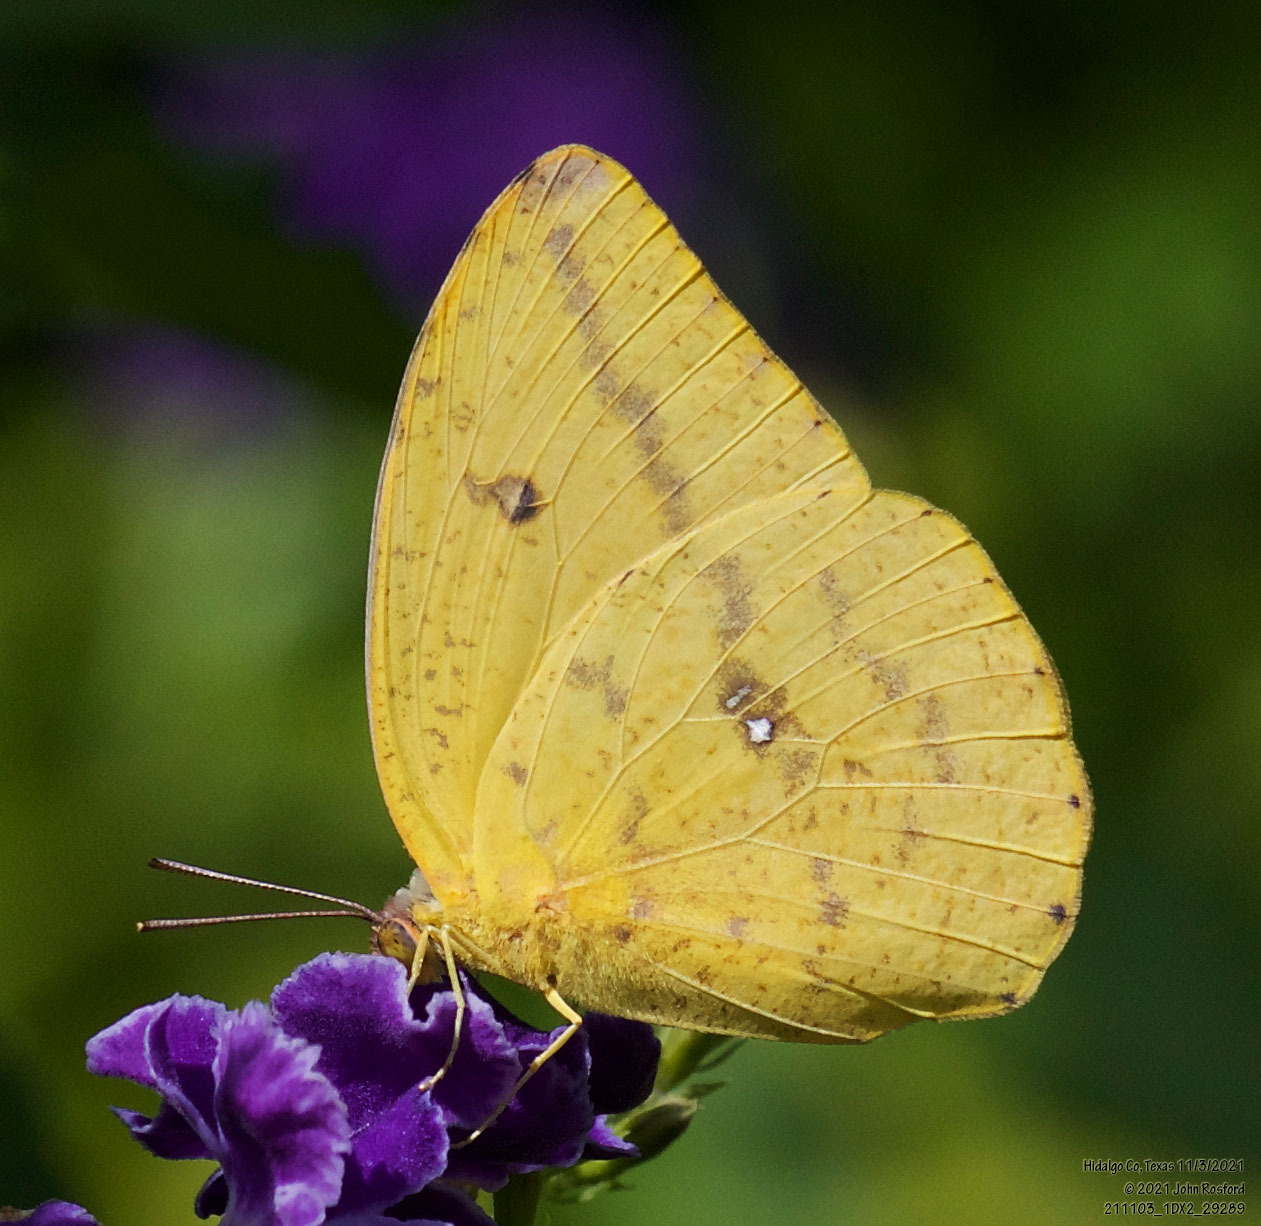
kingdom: Animalia
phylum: Arthropoda
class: Insecta
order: Lepidoptera
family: Pieridae
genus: Phoebis
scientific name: Phoebis agarithe
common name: Large orange sulphur
